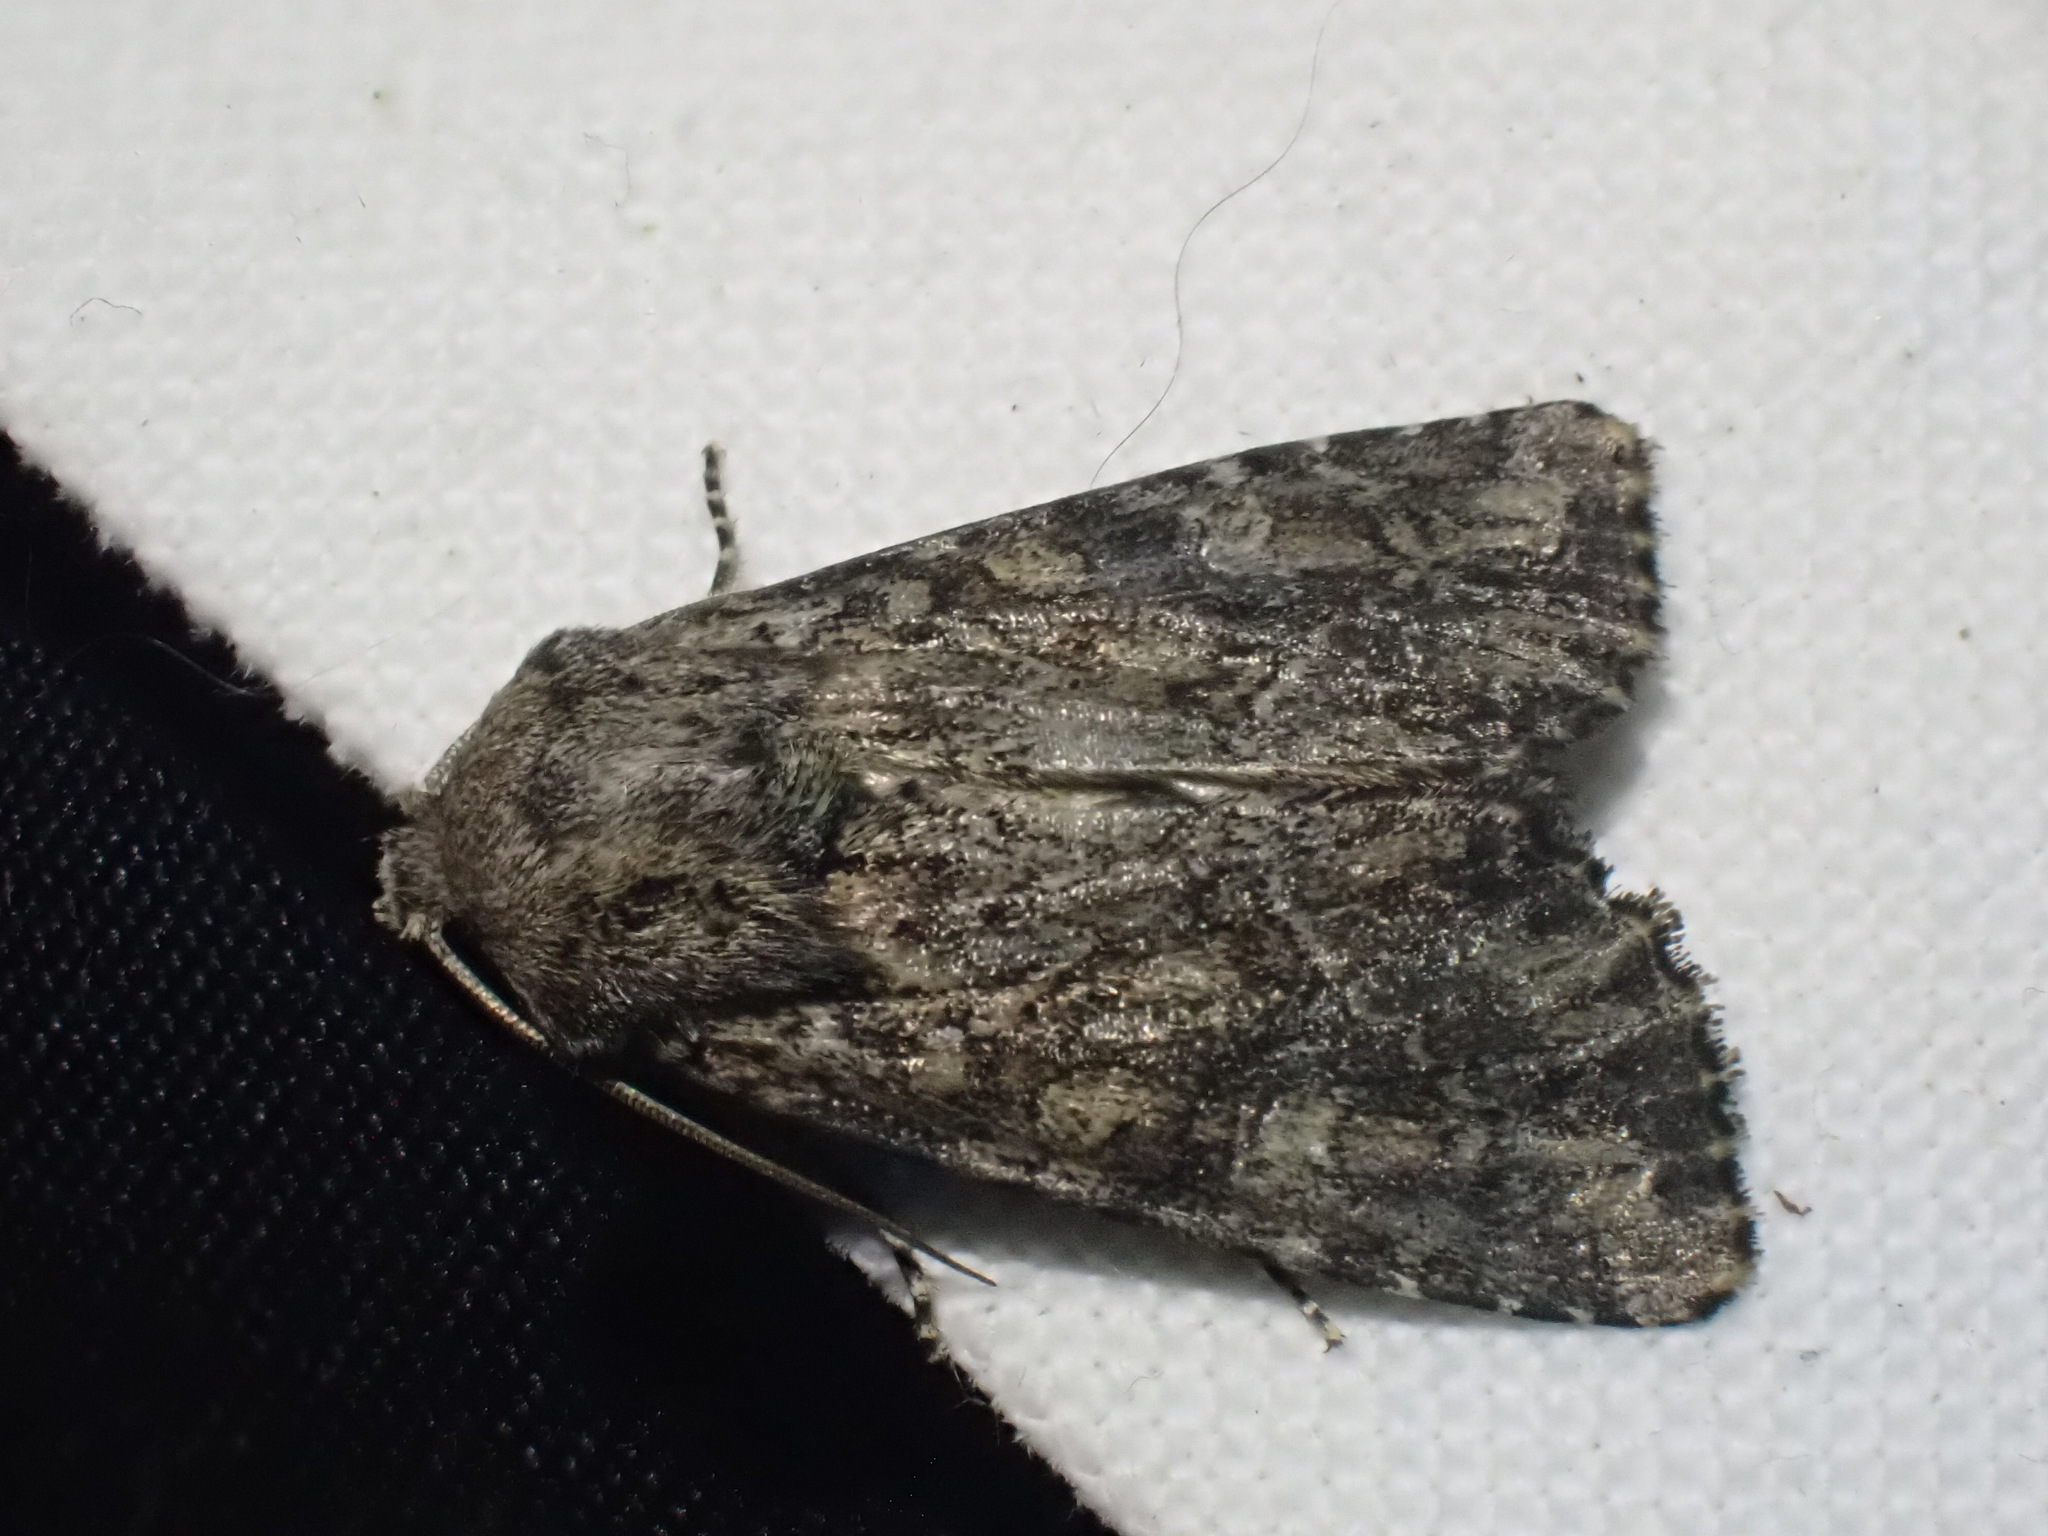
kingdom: Animalia
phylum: Arthropoda
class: Insecta
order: Lepidoptera
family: Noctuidae
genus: Apamea
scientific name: Apamea anceps
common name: Large nutmeg
